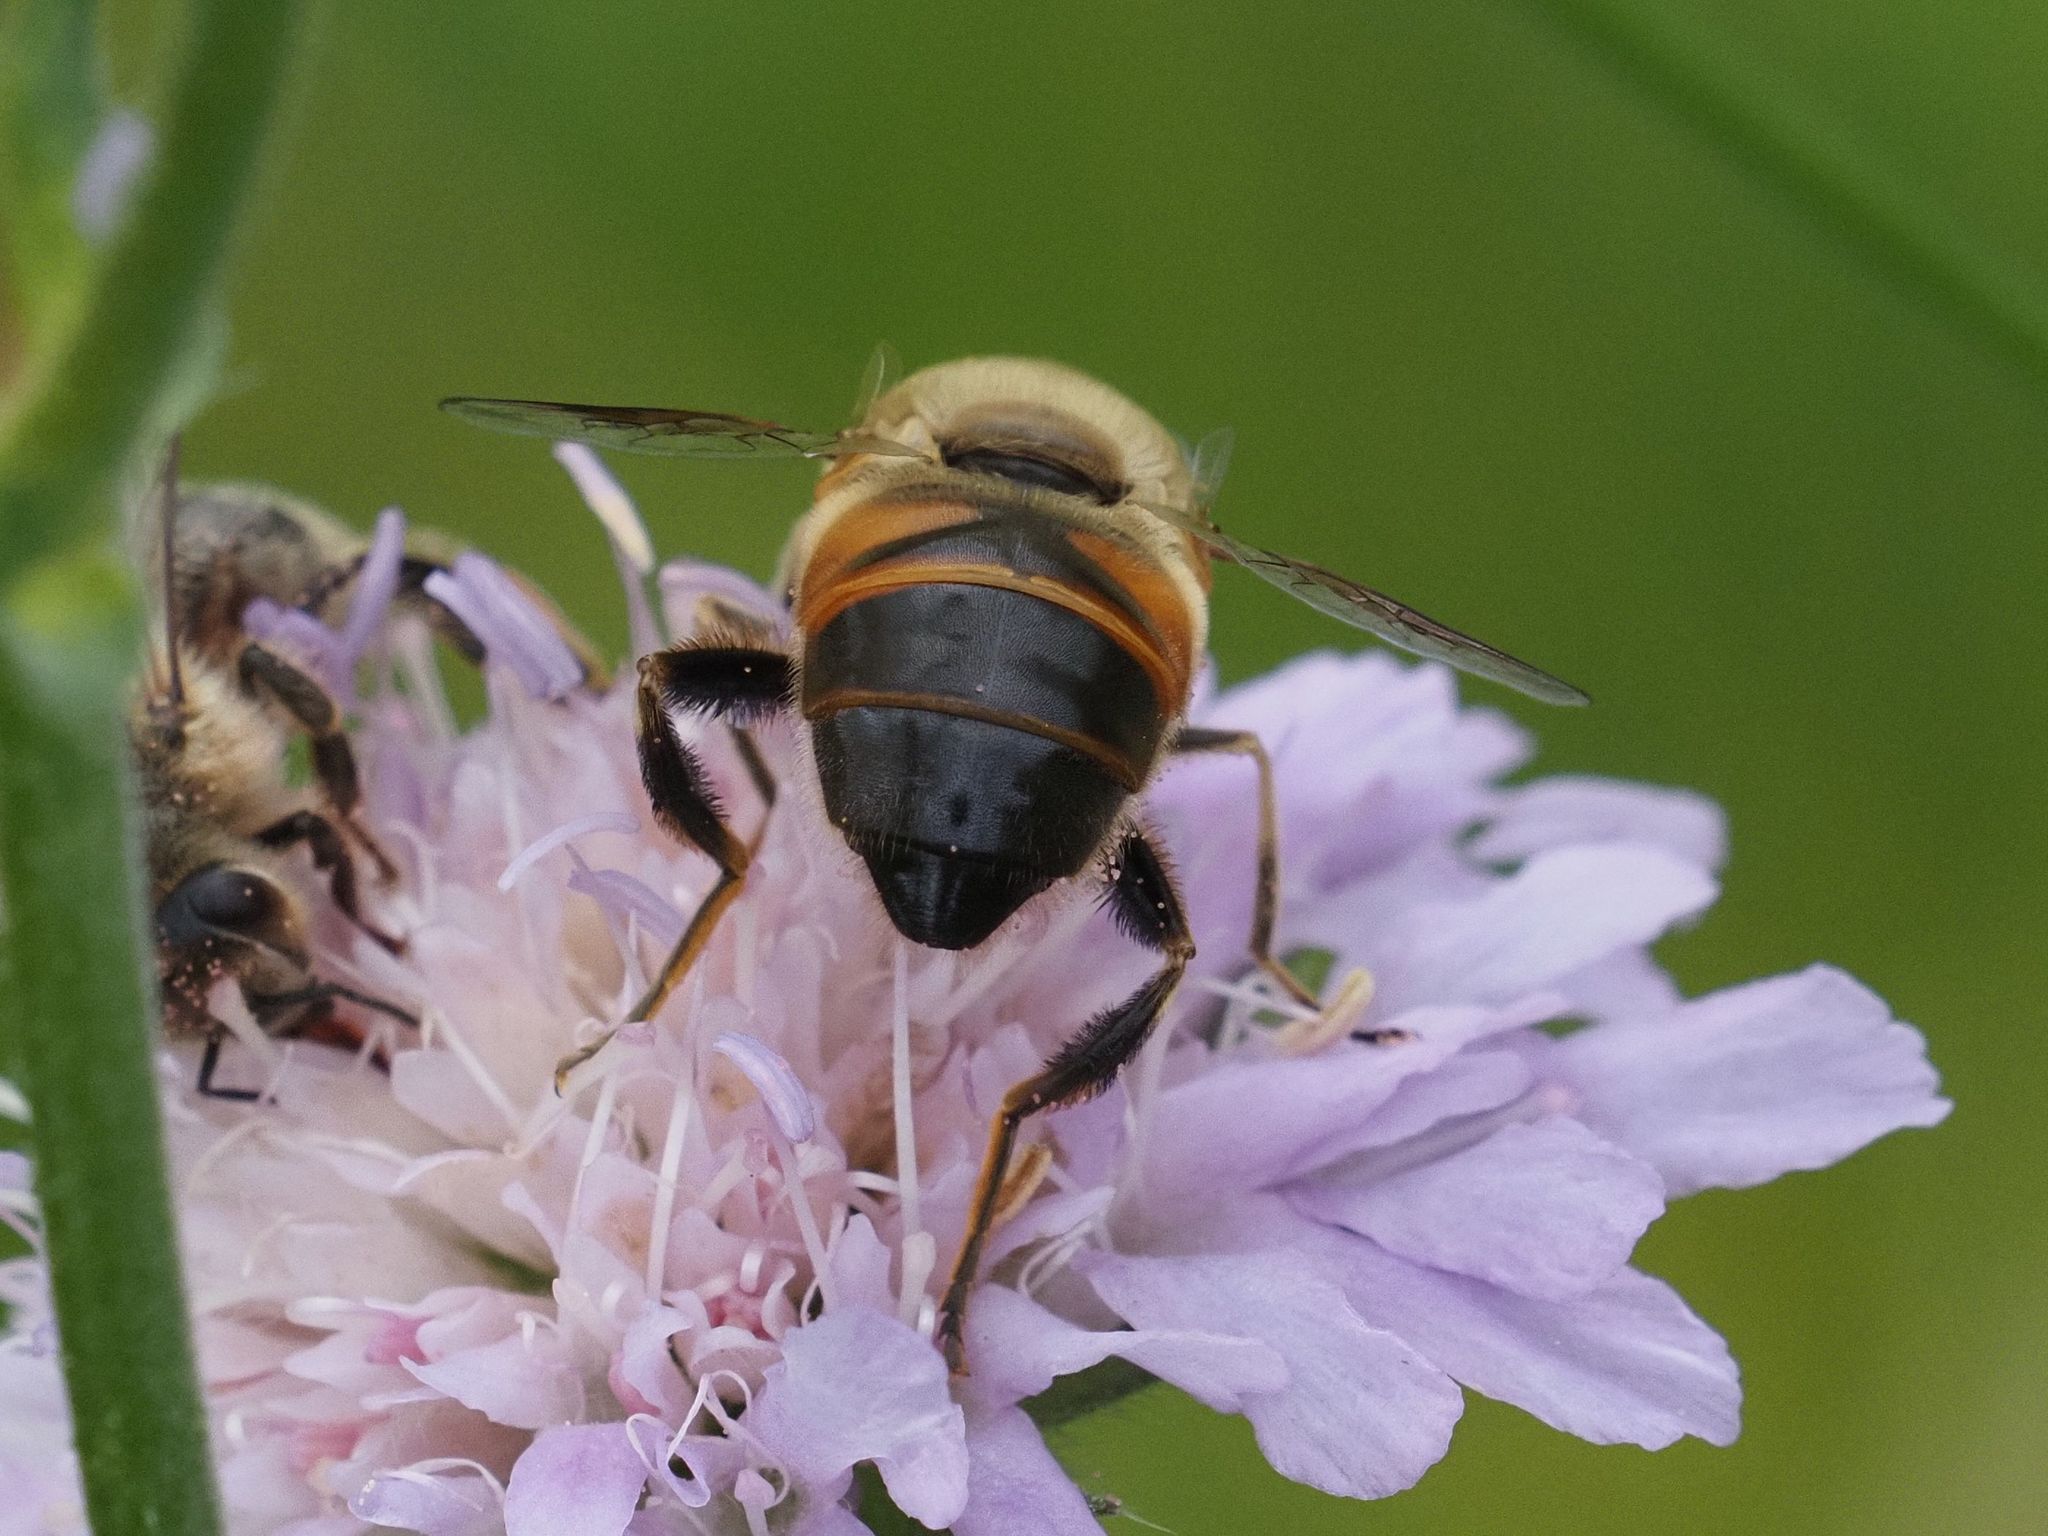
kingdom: Animalia
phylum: Arthropoda
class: Insecta
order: Diptera
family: Syrphidae
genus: Eristalis
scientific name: Eristalis tenax
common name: Drone fly
